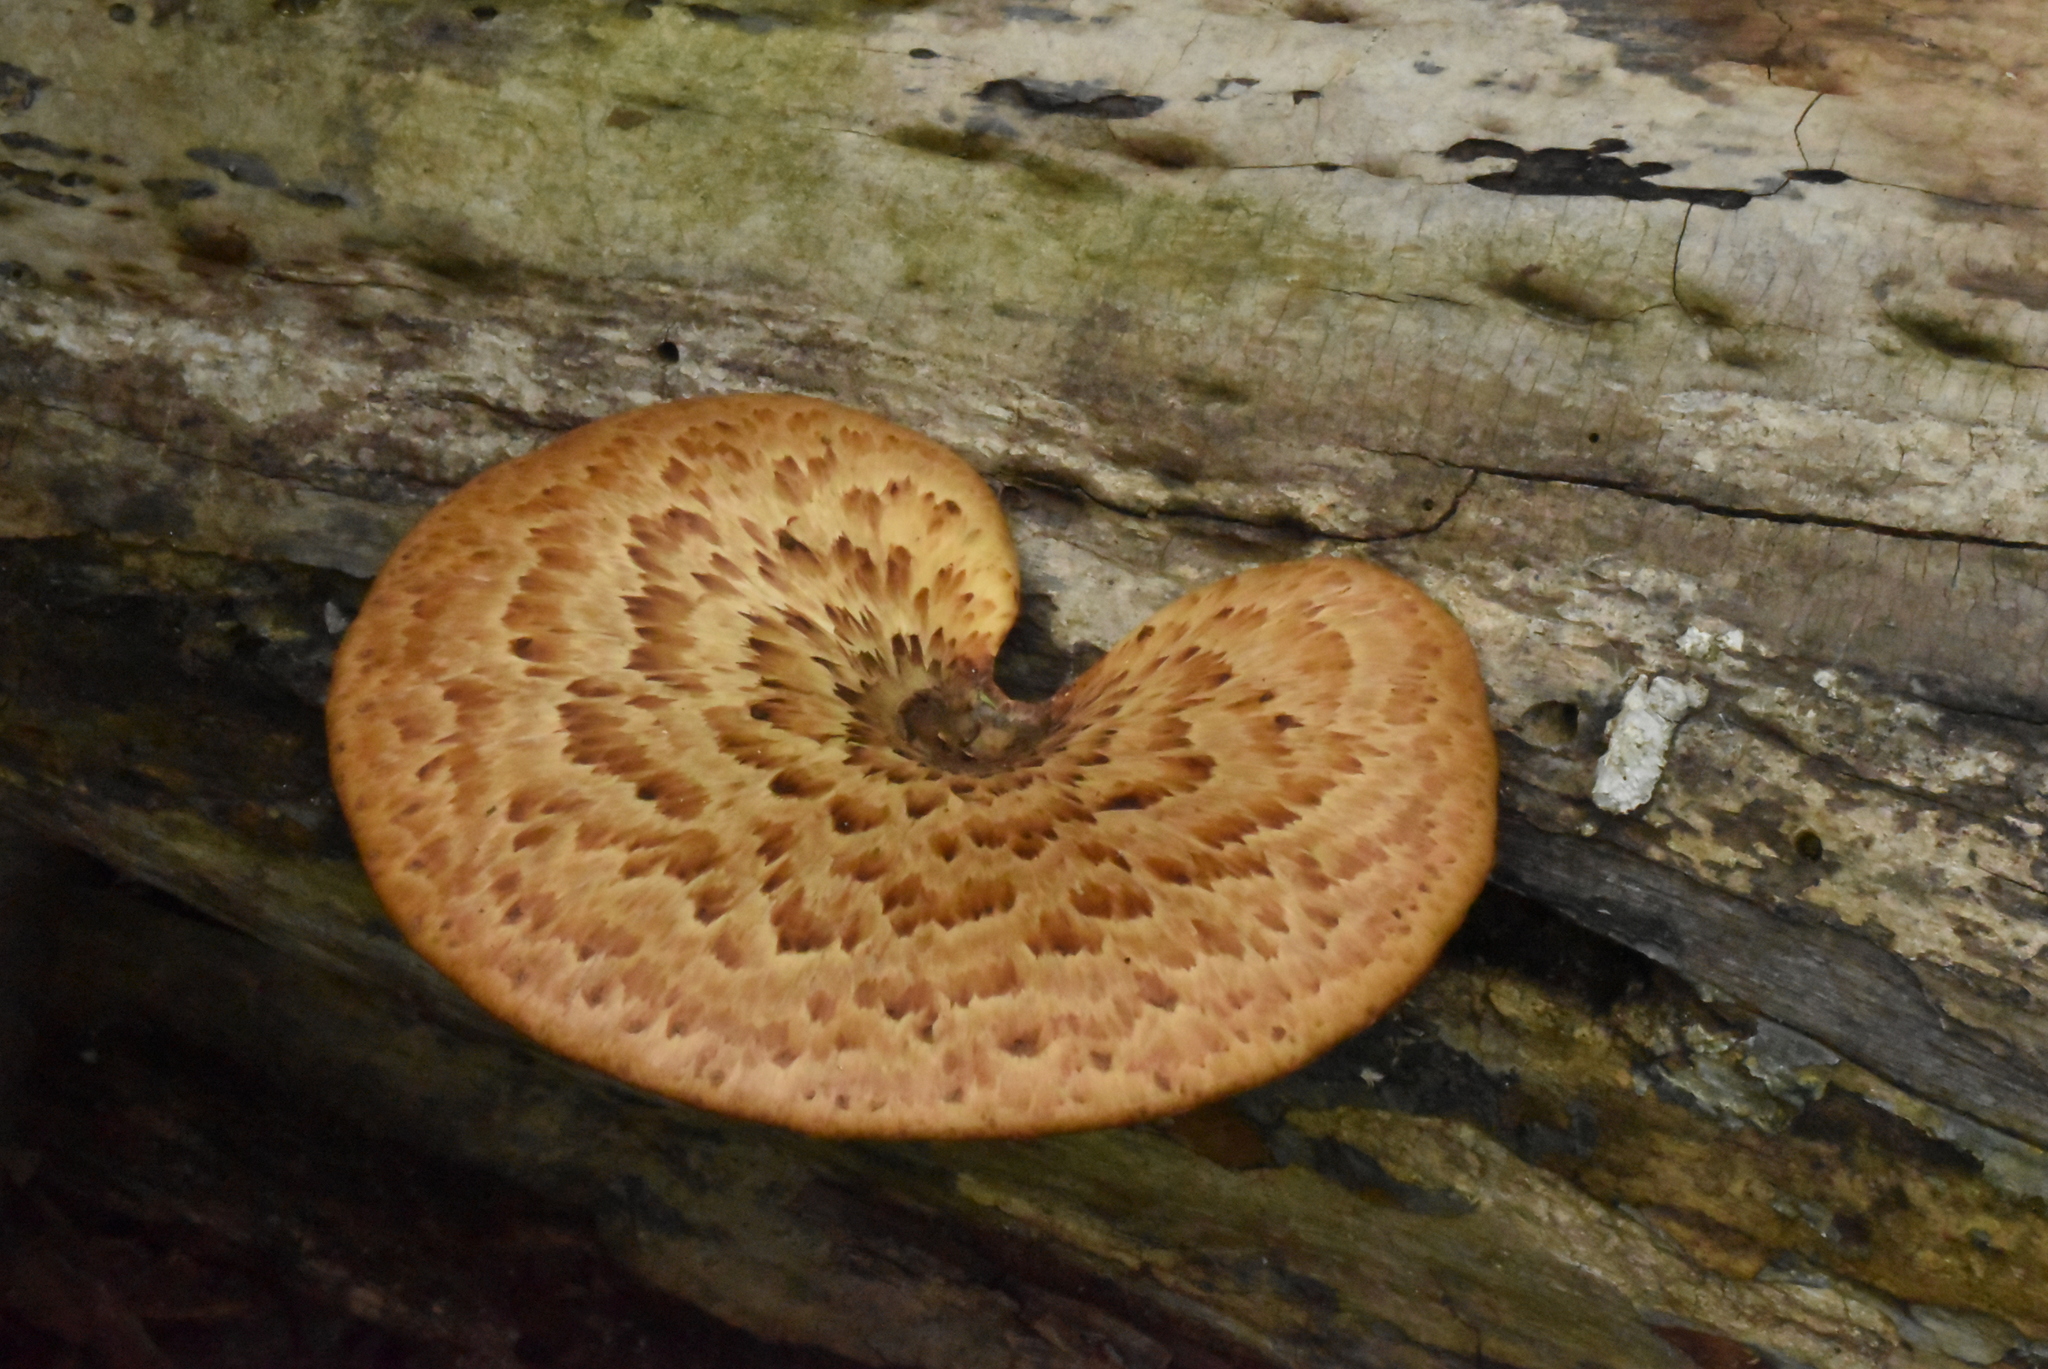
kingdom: Fungi
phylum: Basidiomycota
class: Agaricomycetes
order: Polyporales
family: Polyporaceae
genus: Cerioporus
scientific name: Cerioporus squamosus
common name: Dryad's saddle
